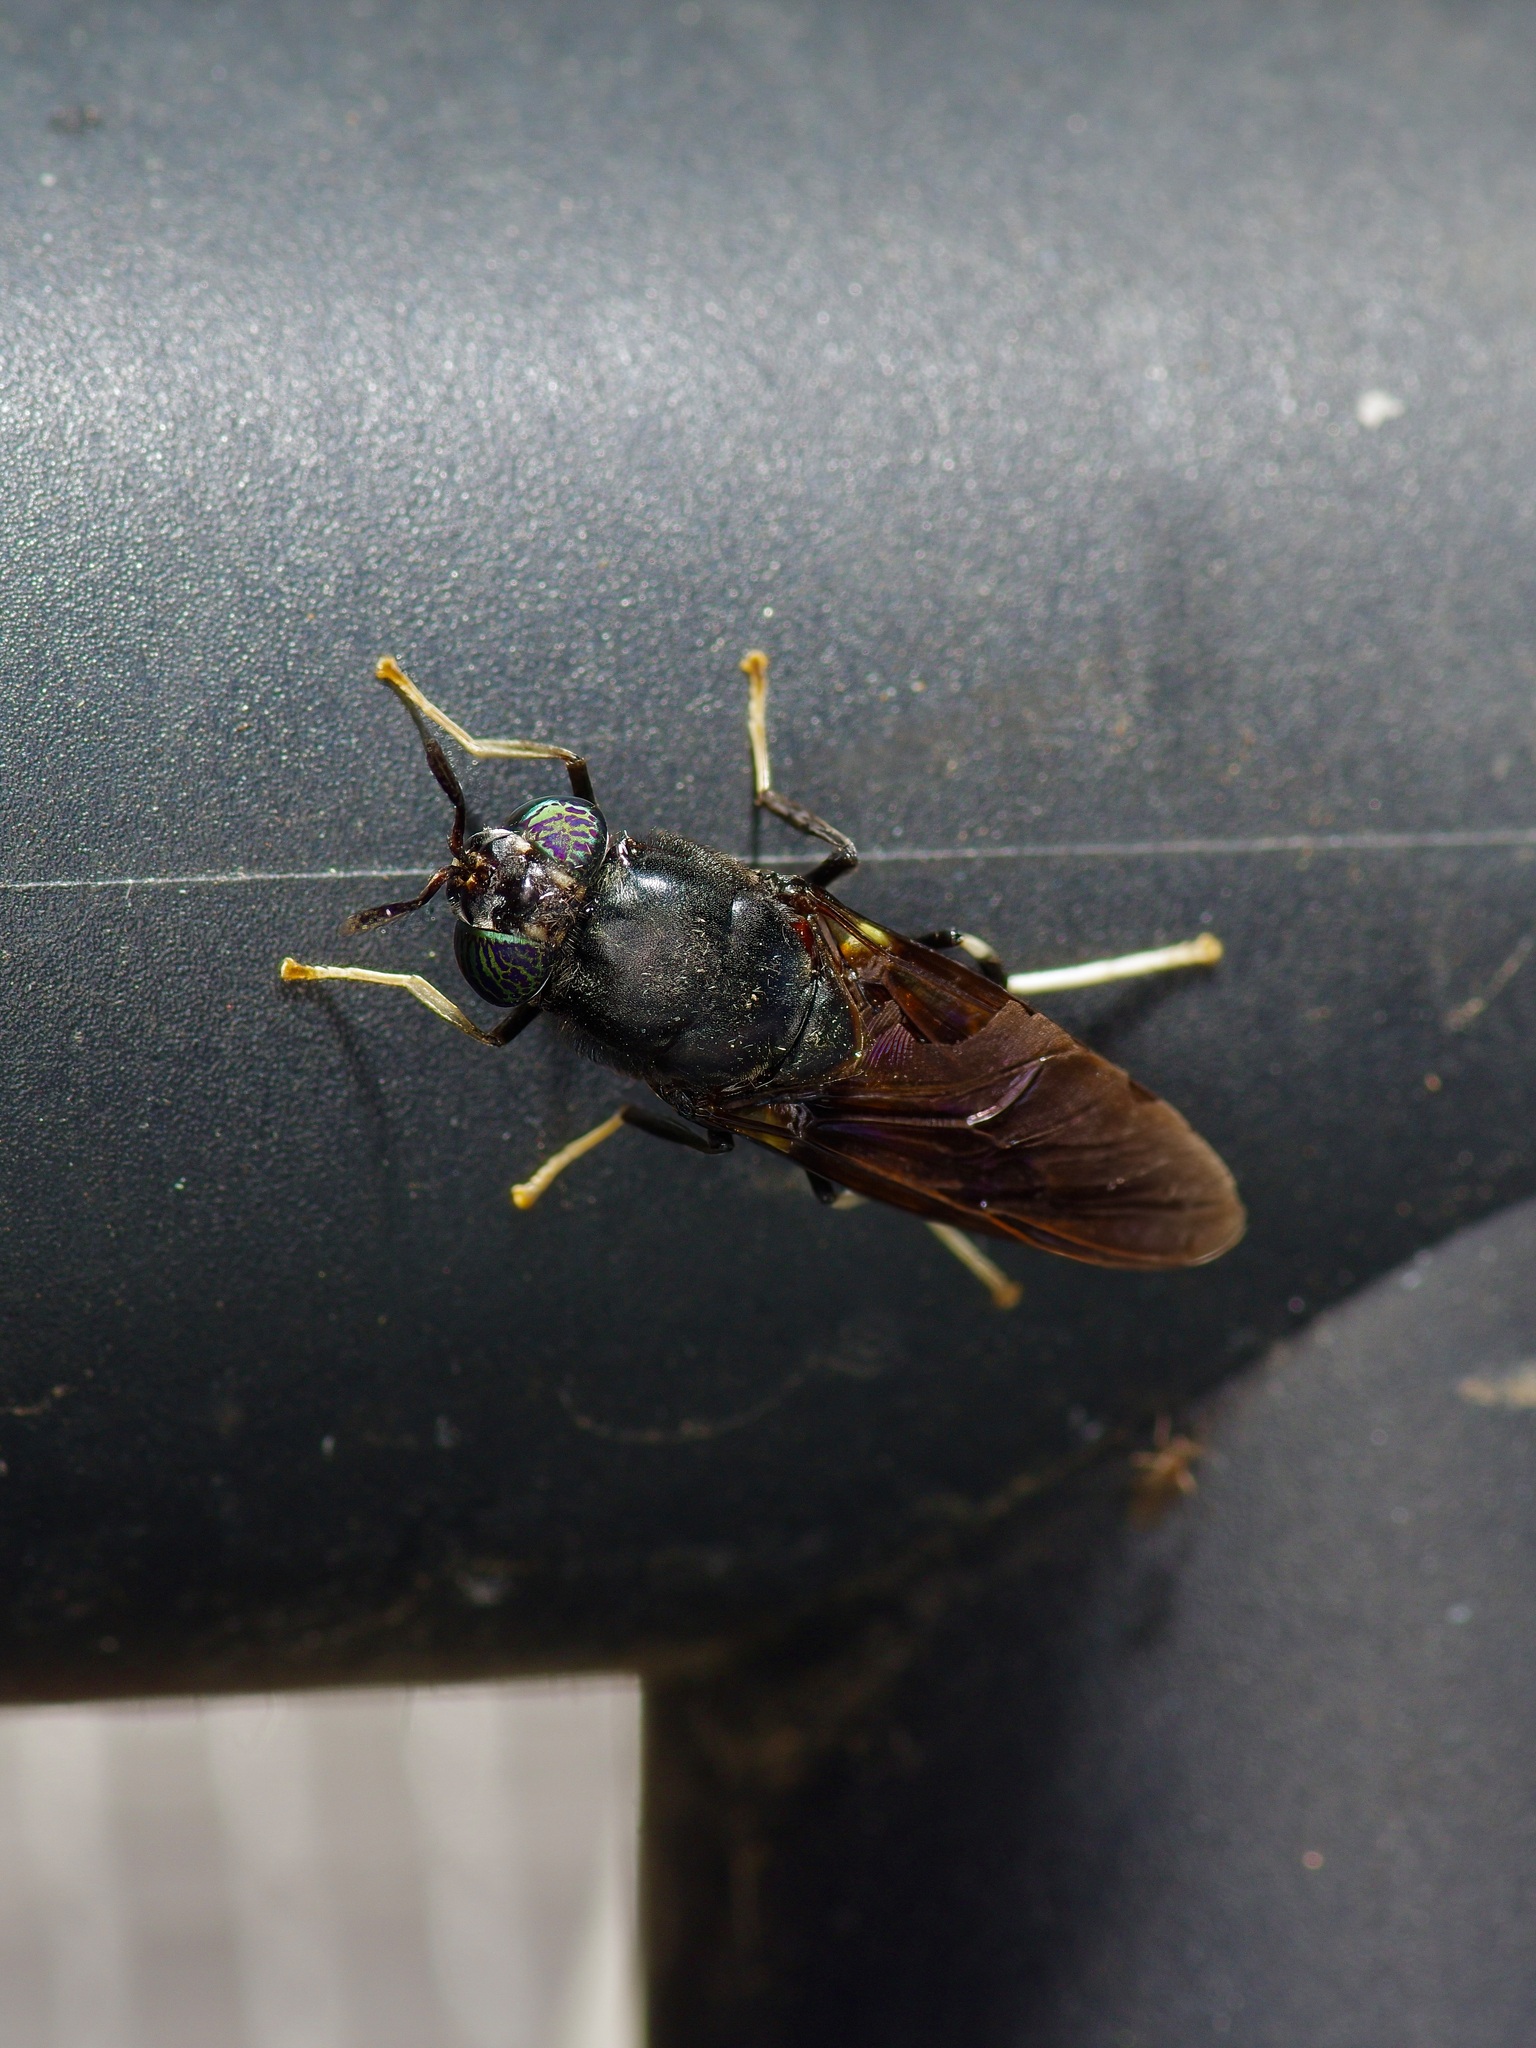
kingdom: Animalia
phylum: Arthropoda
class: Insecta
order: Diptera
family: Stratiomyidae
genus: Hermetia
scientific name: Hermetia illucens
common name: Black soldier fly
